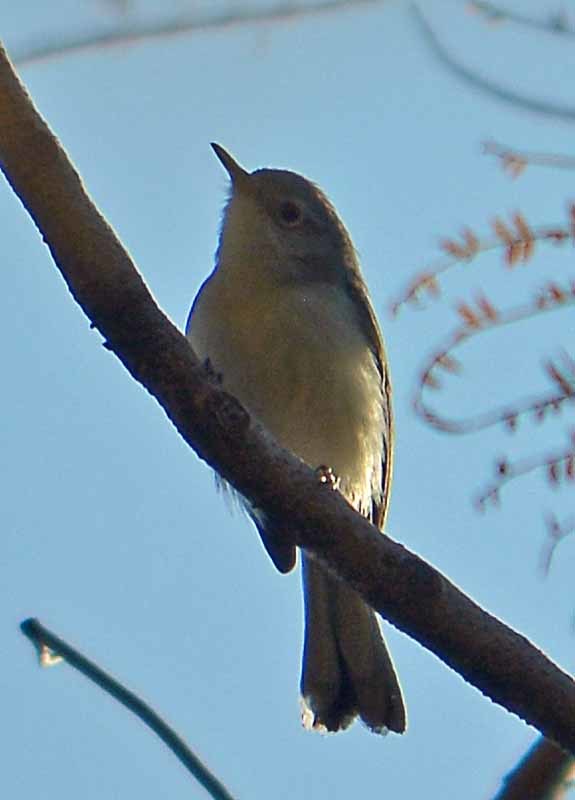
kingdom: Animalia
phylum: Chordata
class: Aves
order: Passeriformes
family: Polioptilidae
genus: Polioptila
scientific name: Polioptila caerulea
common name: Blue-gray gnatcatcher
